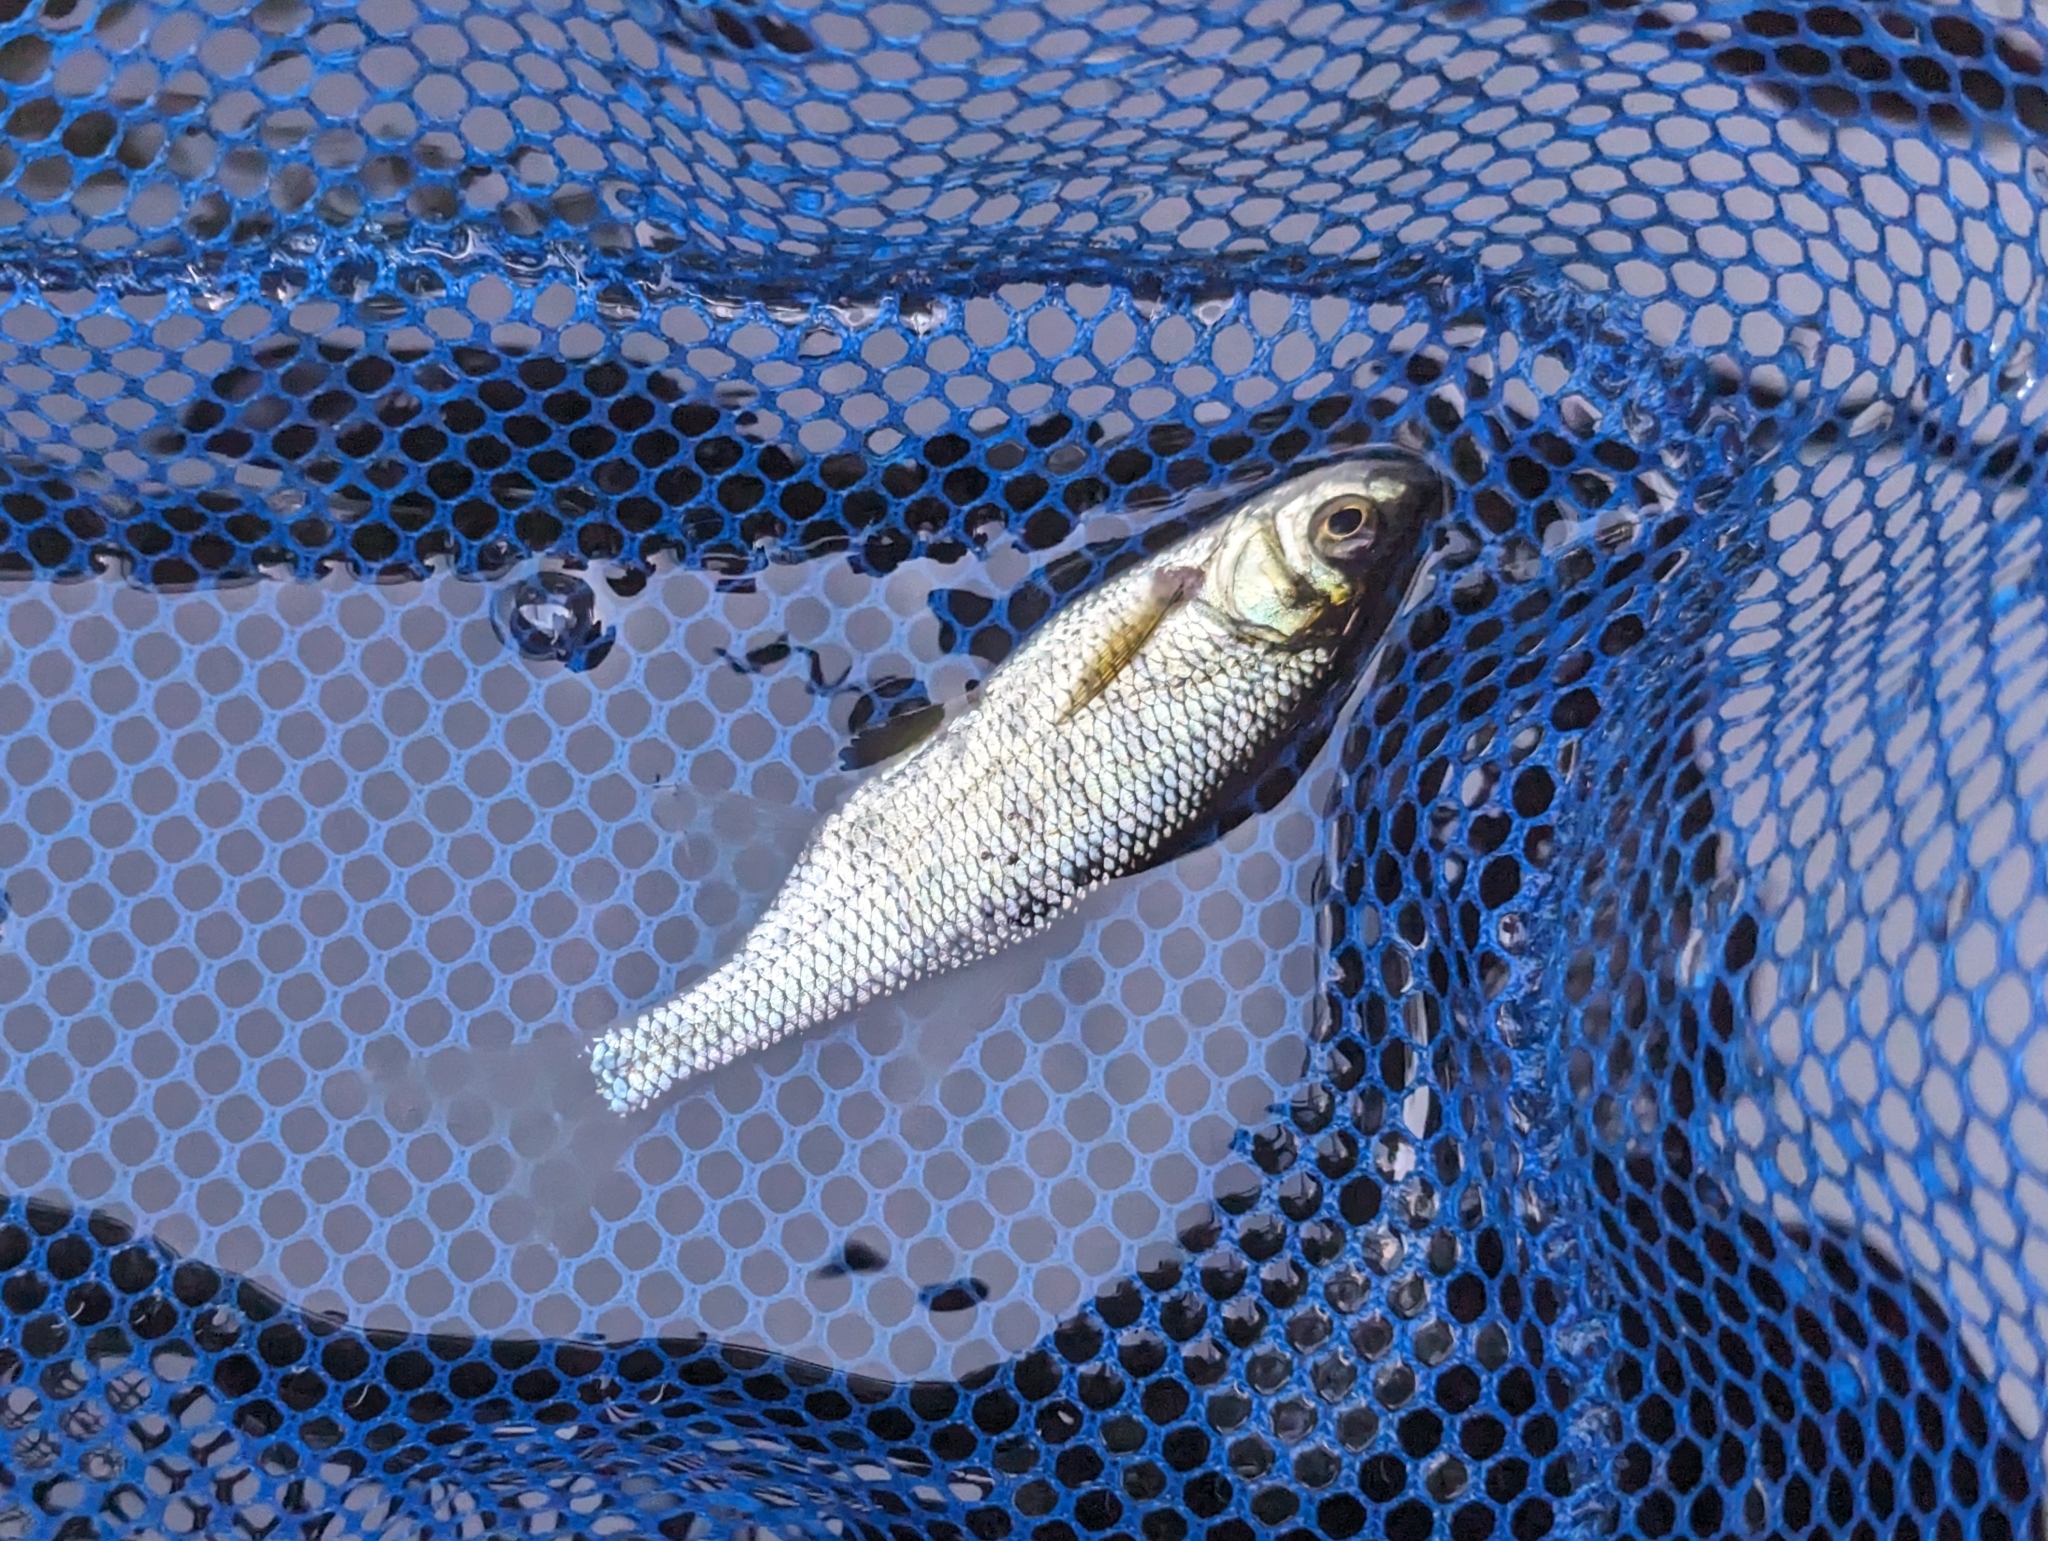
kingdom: Animalia
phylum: Chordata
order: Cypriniformes
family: Cyprinidae
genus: Notemigonus
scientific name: Notemigonus crysoleucas
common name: Golden shiner
